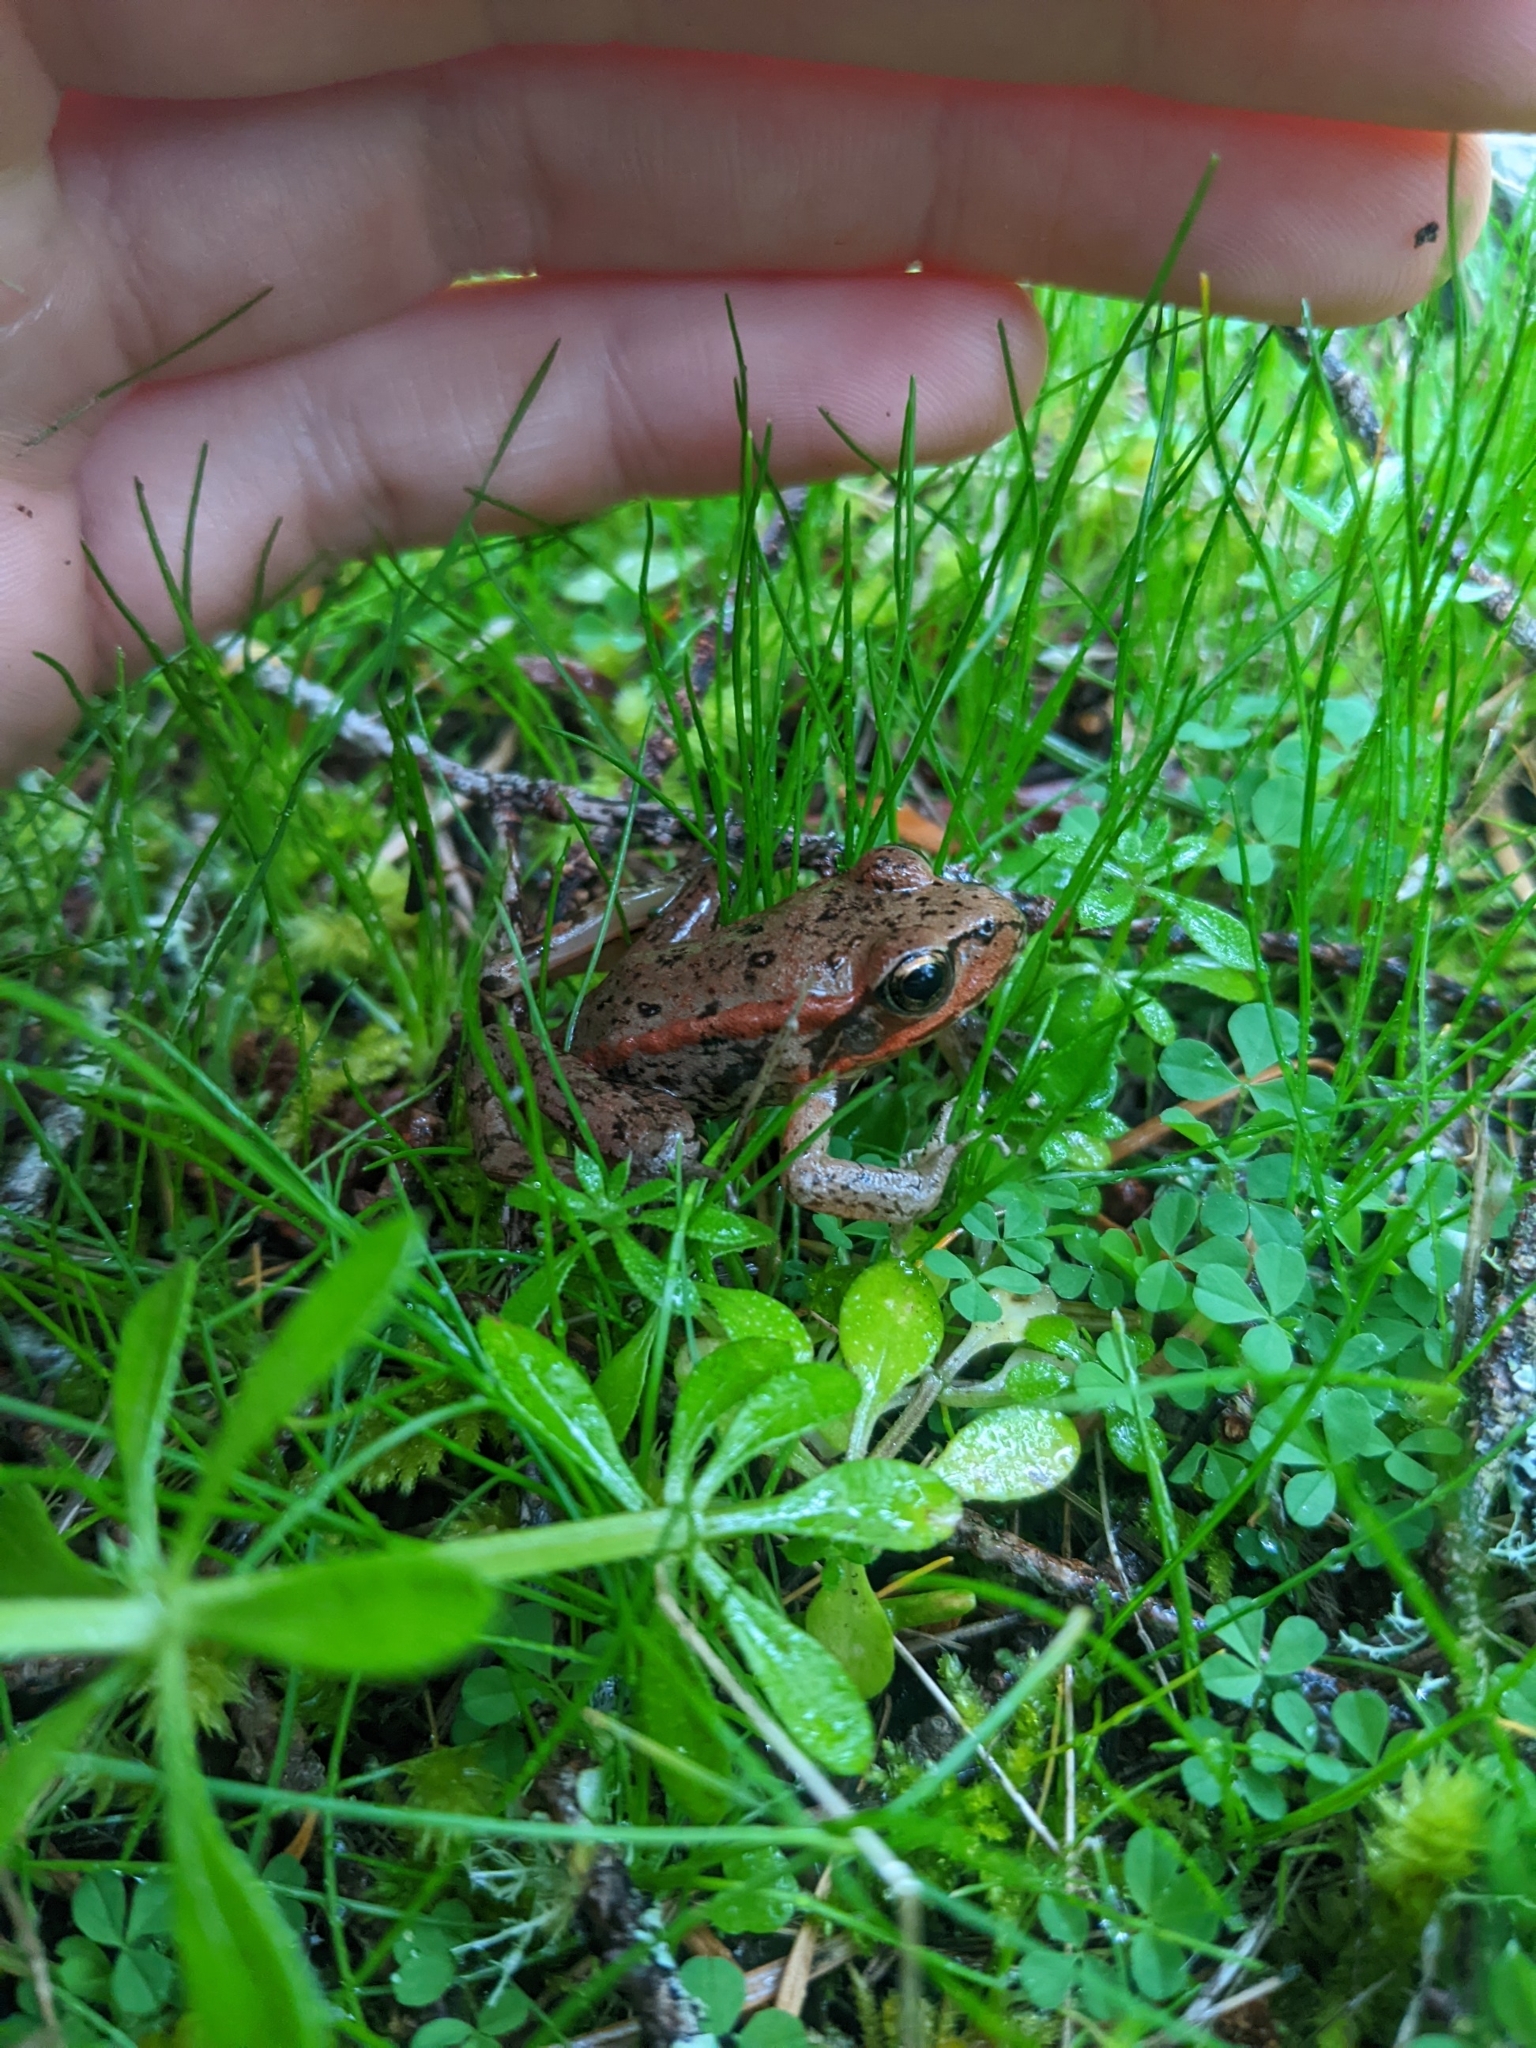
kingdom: Animalia
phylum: Chordata
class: Amphibia
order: Anura
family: Ranidae
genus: Rana
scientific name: Rana aurora
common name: Red-legged frog
